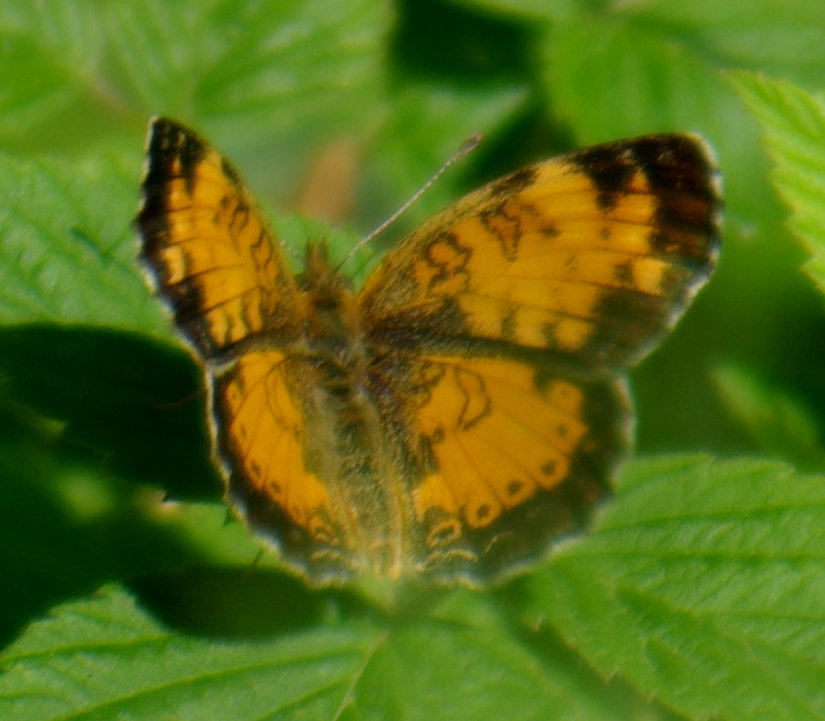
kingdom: Animalia
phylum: Arthropoda
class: Insecta
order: Lepidoptera
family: Nymphalidae
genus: Phyciodes
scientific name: Phyciodes tharos
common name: Pearl crescent
